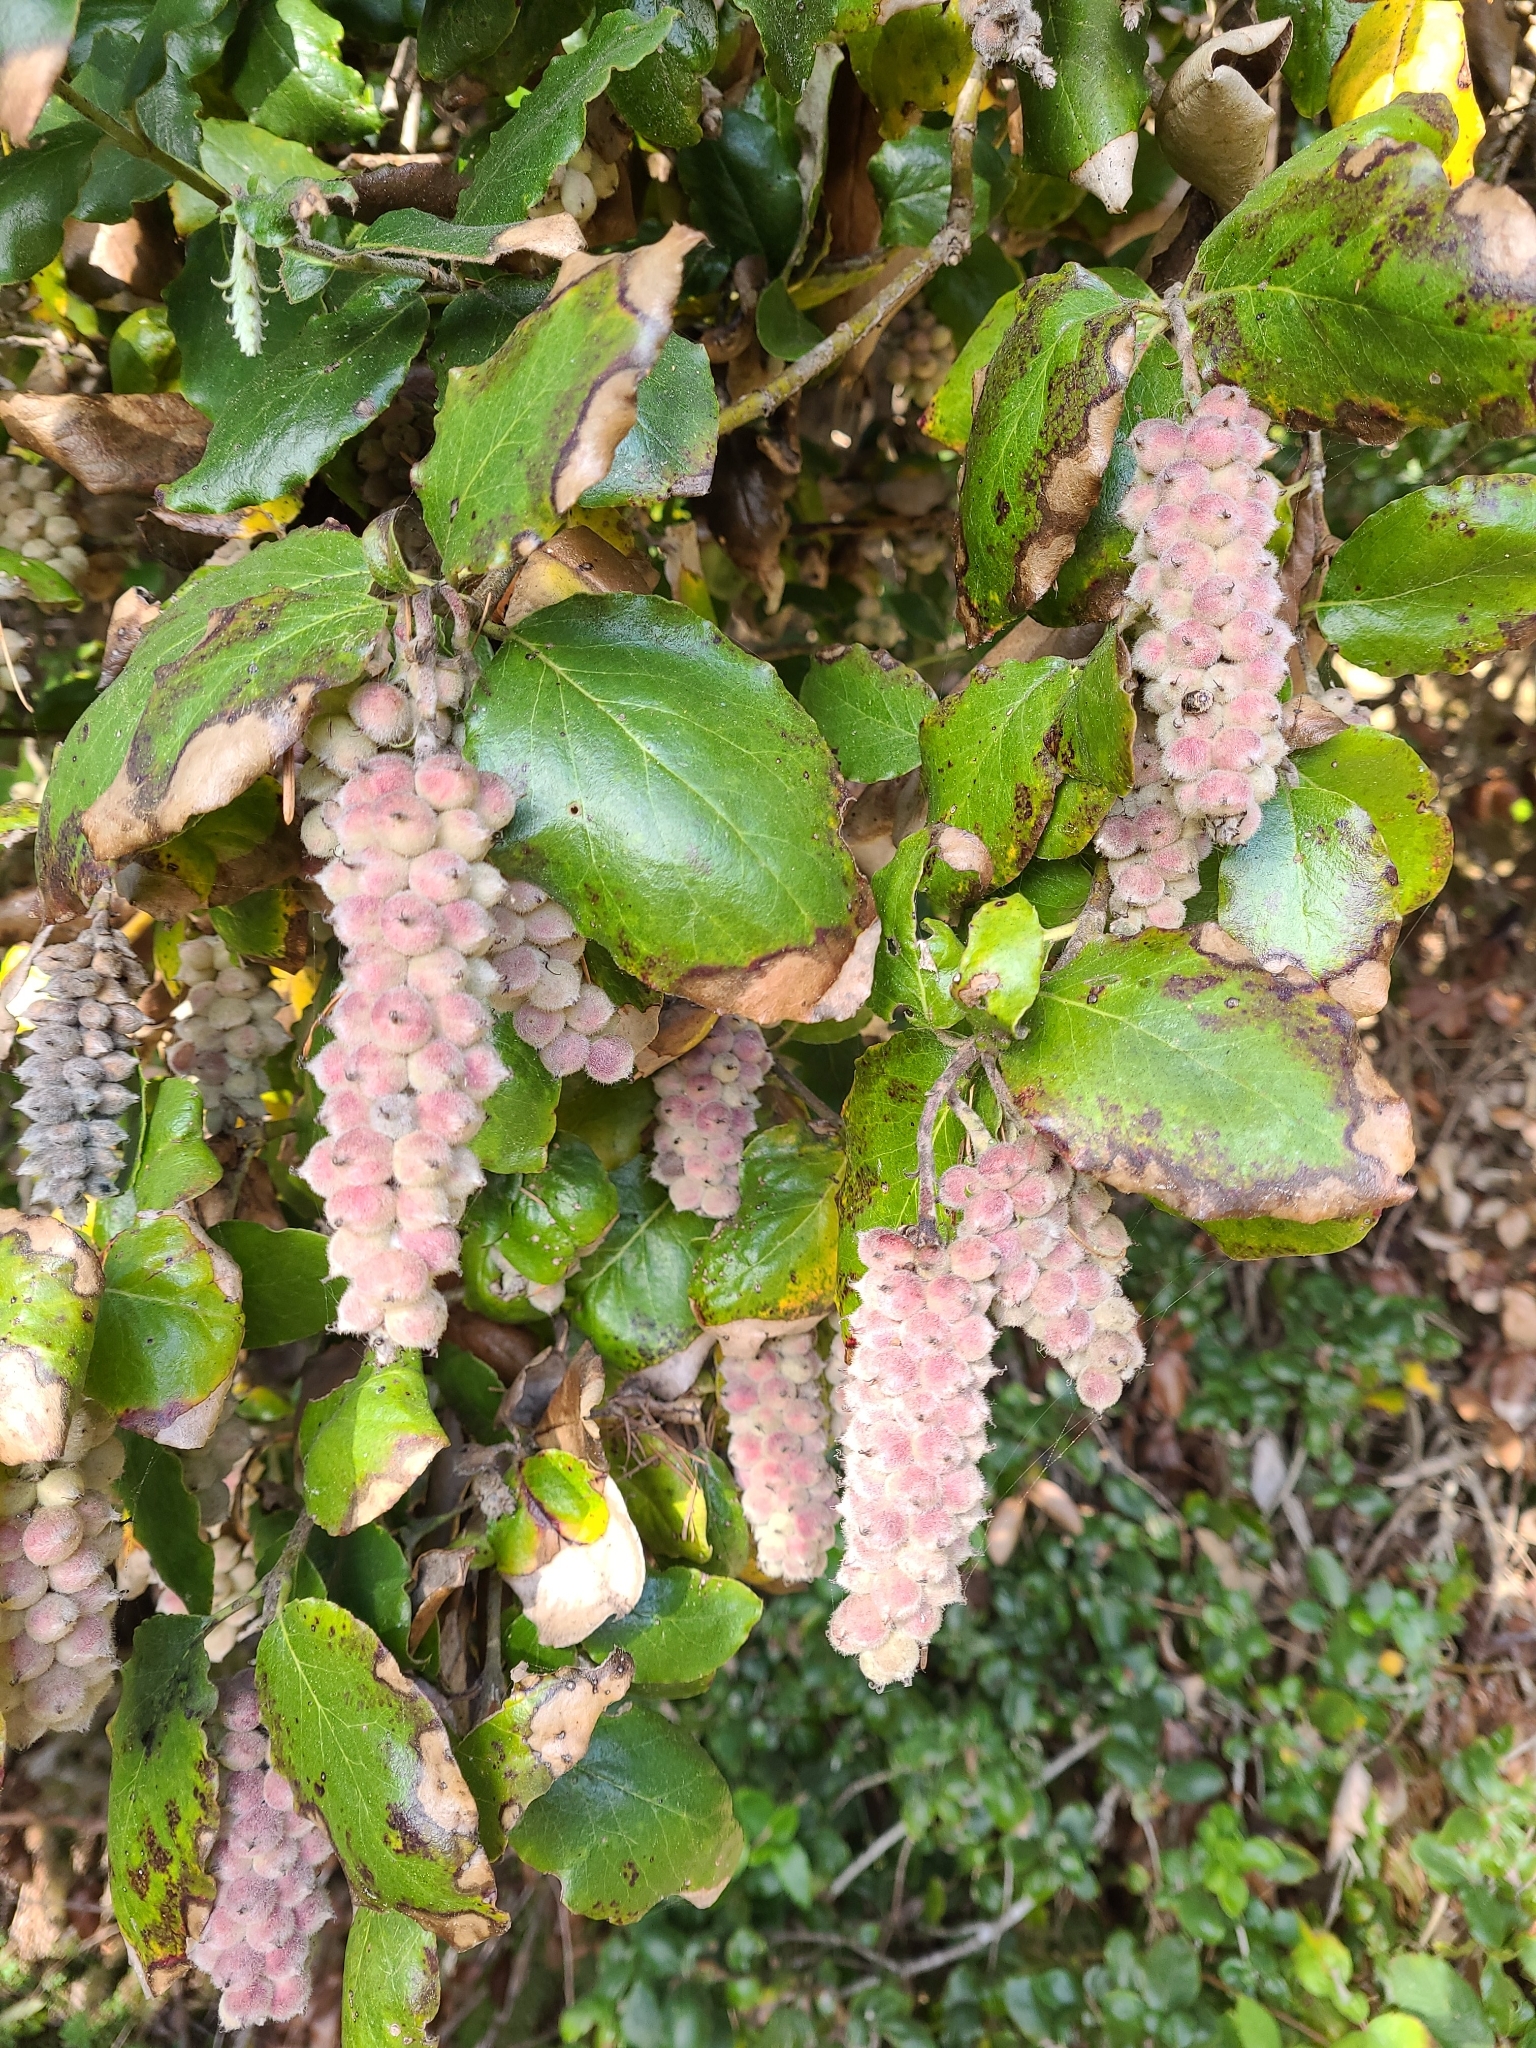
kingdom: Plantae
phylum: Tracheophyta
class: Magnoliopsida
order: Garryales
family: Garryaceae
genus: Garrya
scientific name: Garrya elliptica
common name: Silk-tassel
